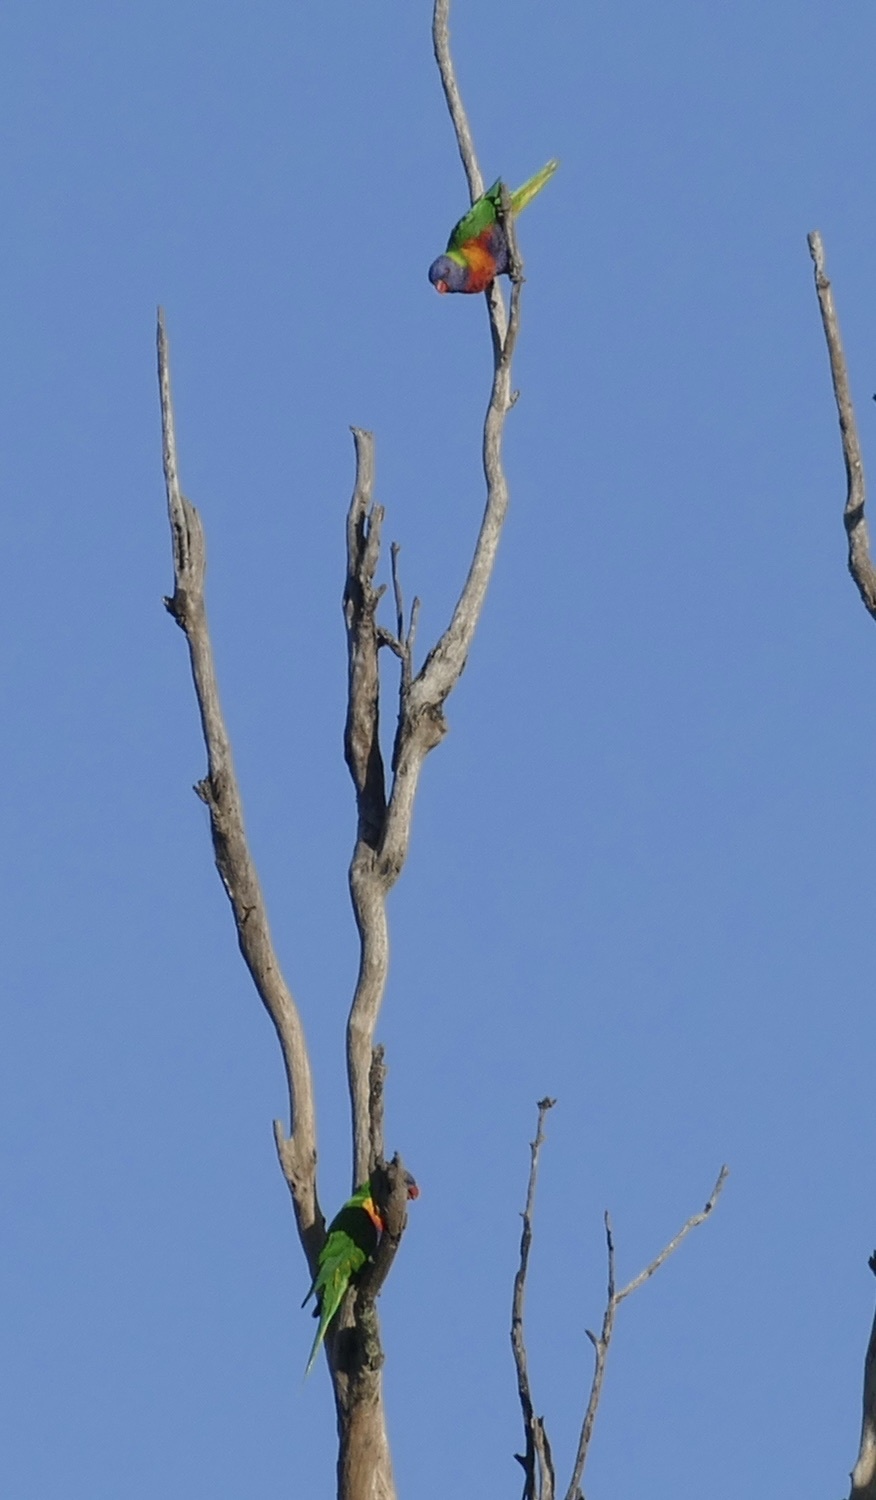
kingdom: Animalia
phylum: Chordata
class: Aves
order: Psittaciformes
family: Psittacidae
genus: Trichoglossus
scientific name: Trichoglossus haematodus
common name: Coconut lorikeet
